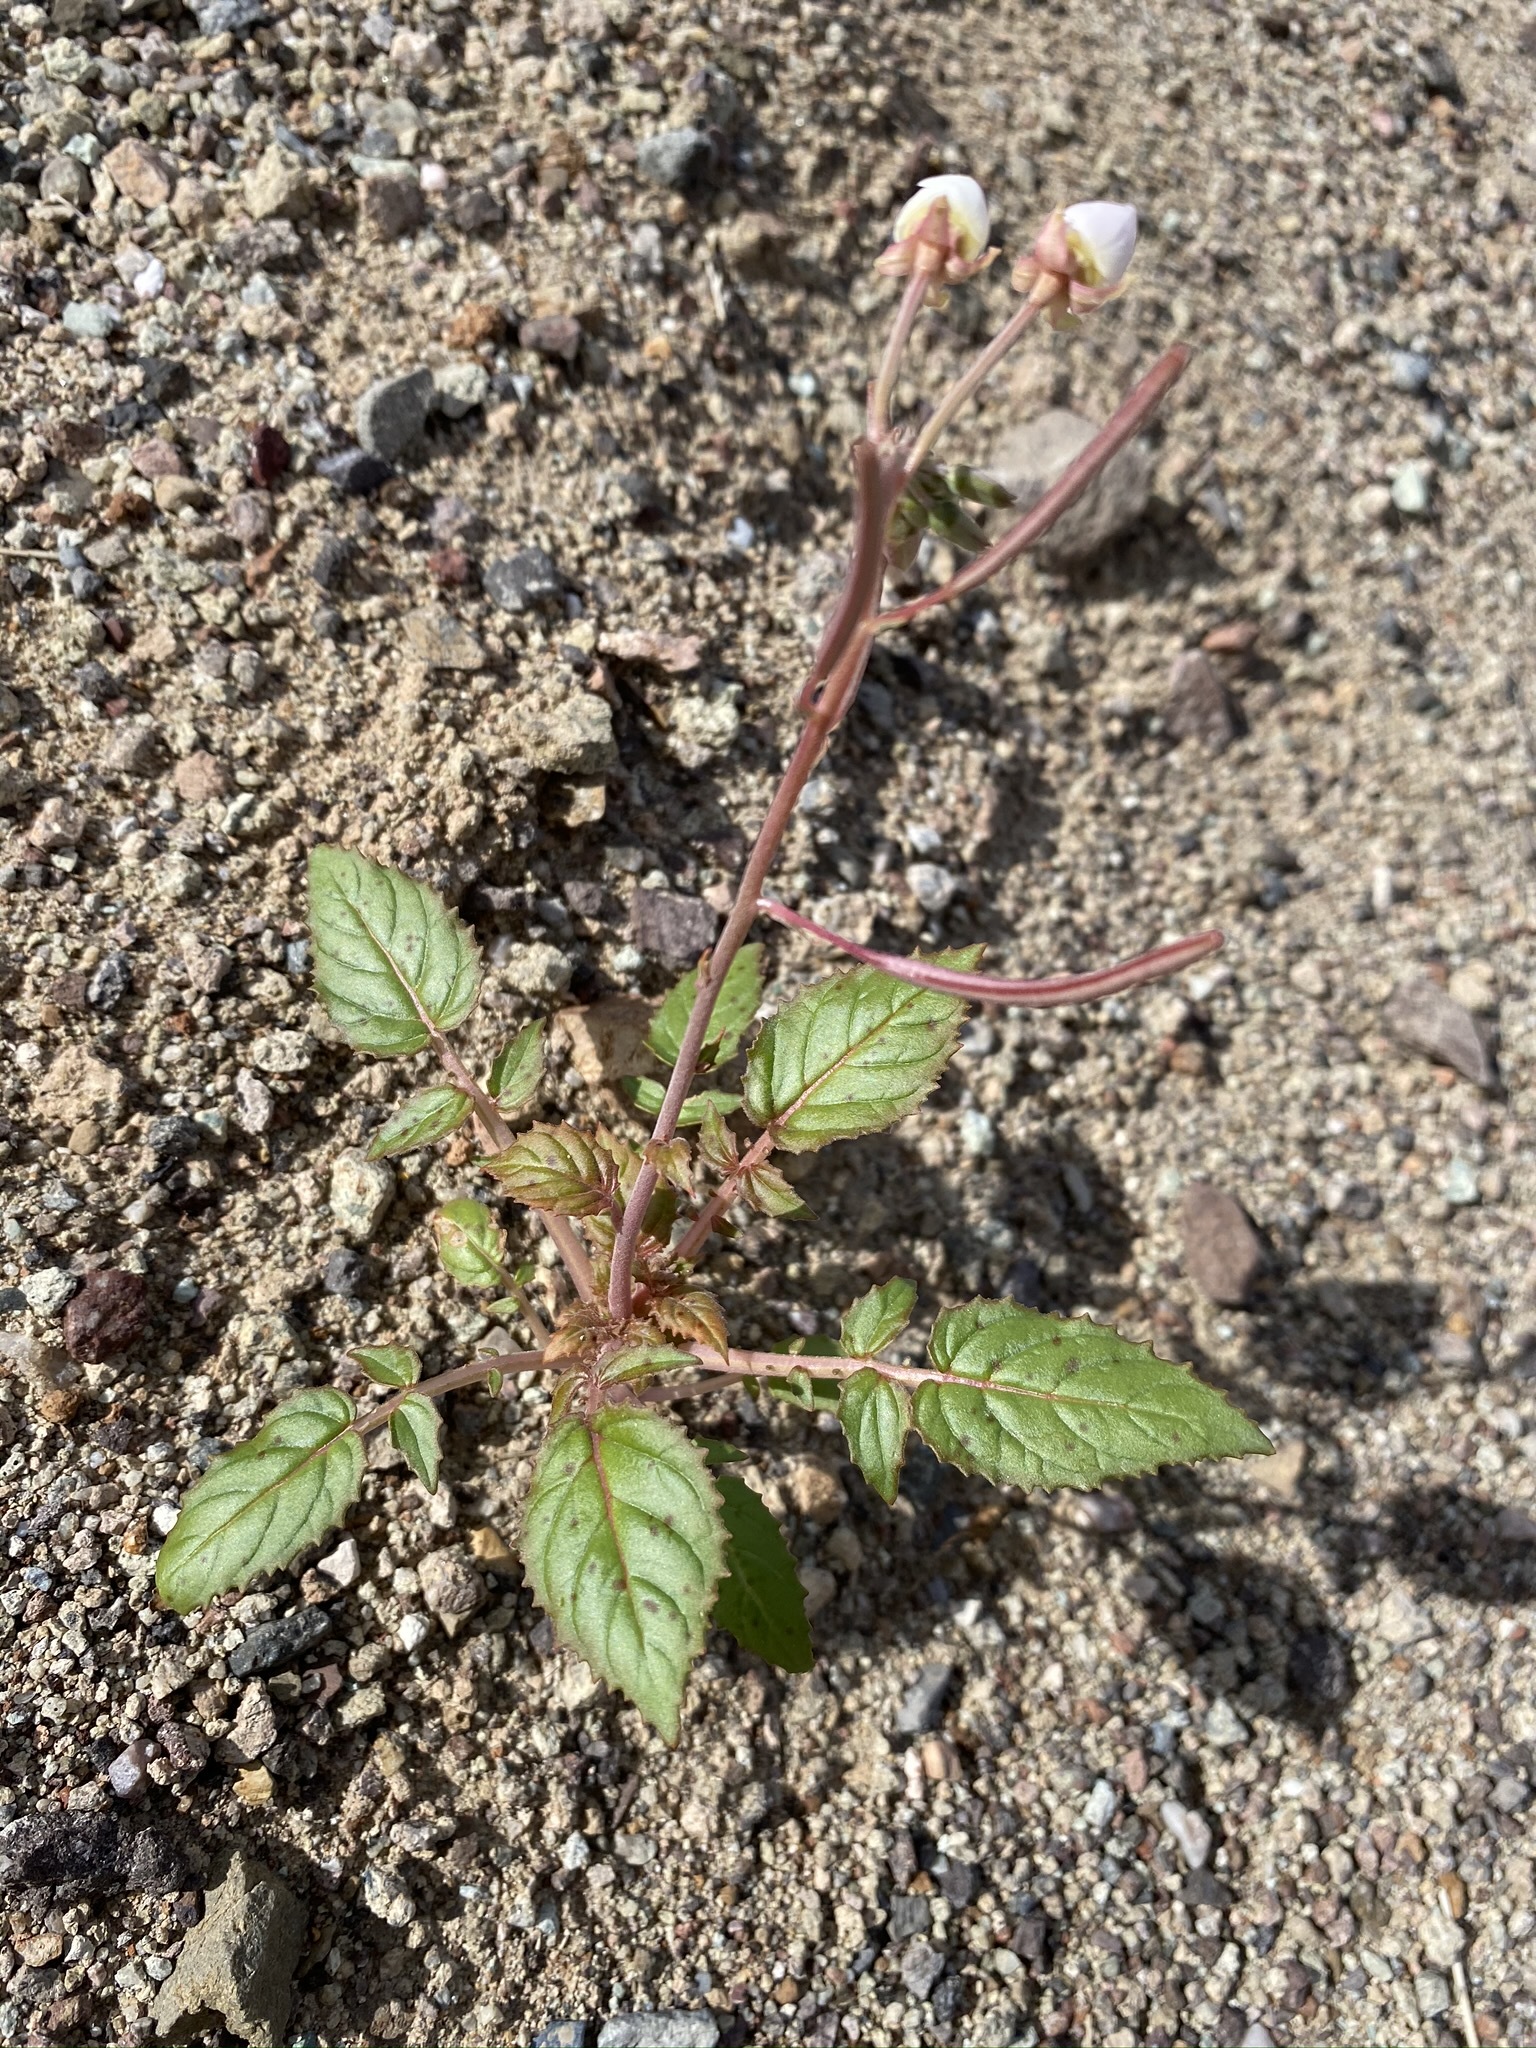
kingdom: Plantae
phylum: Tracheophyta
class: Magnoliopsida
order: Myrtales
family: Onagraceae
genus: Chylismia
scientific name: Chylismia claviformis
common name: Browneyes
